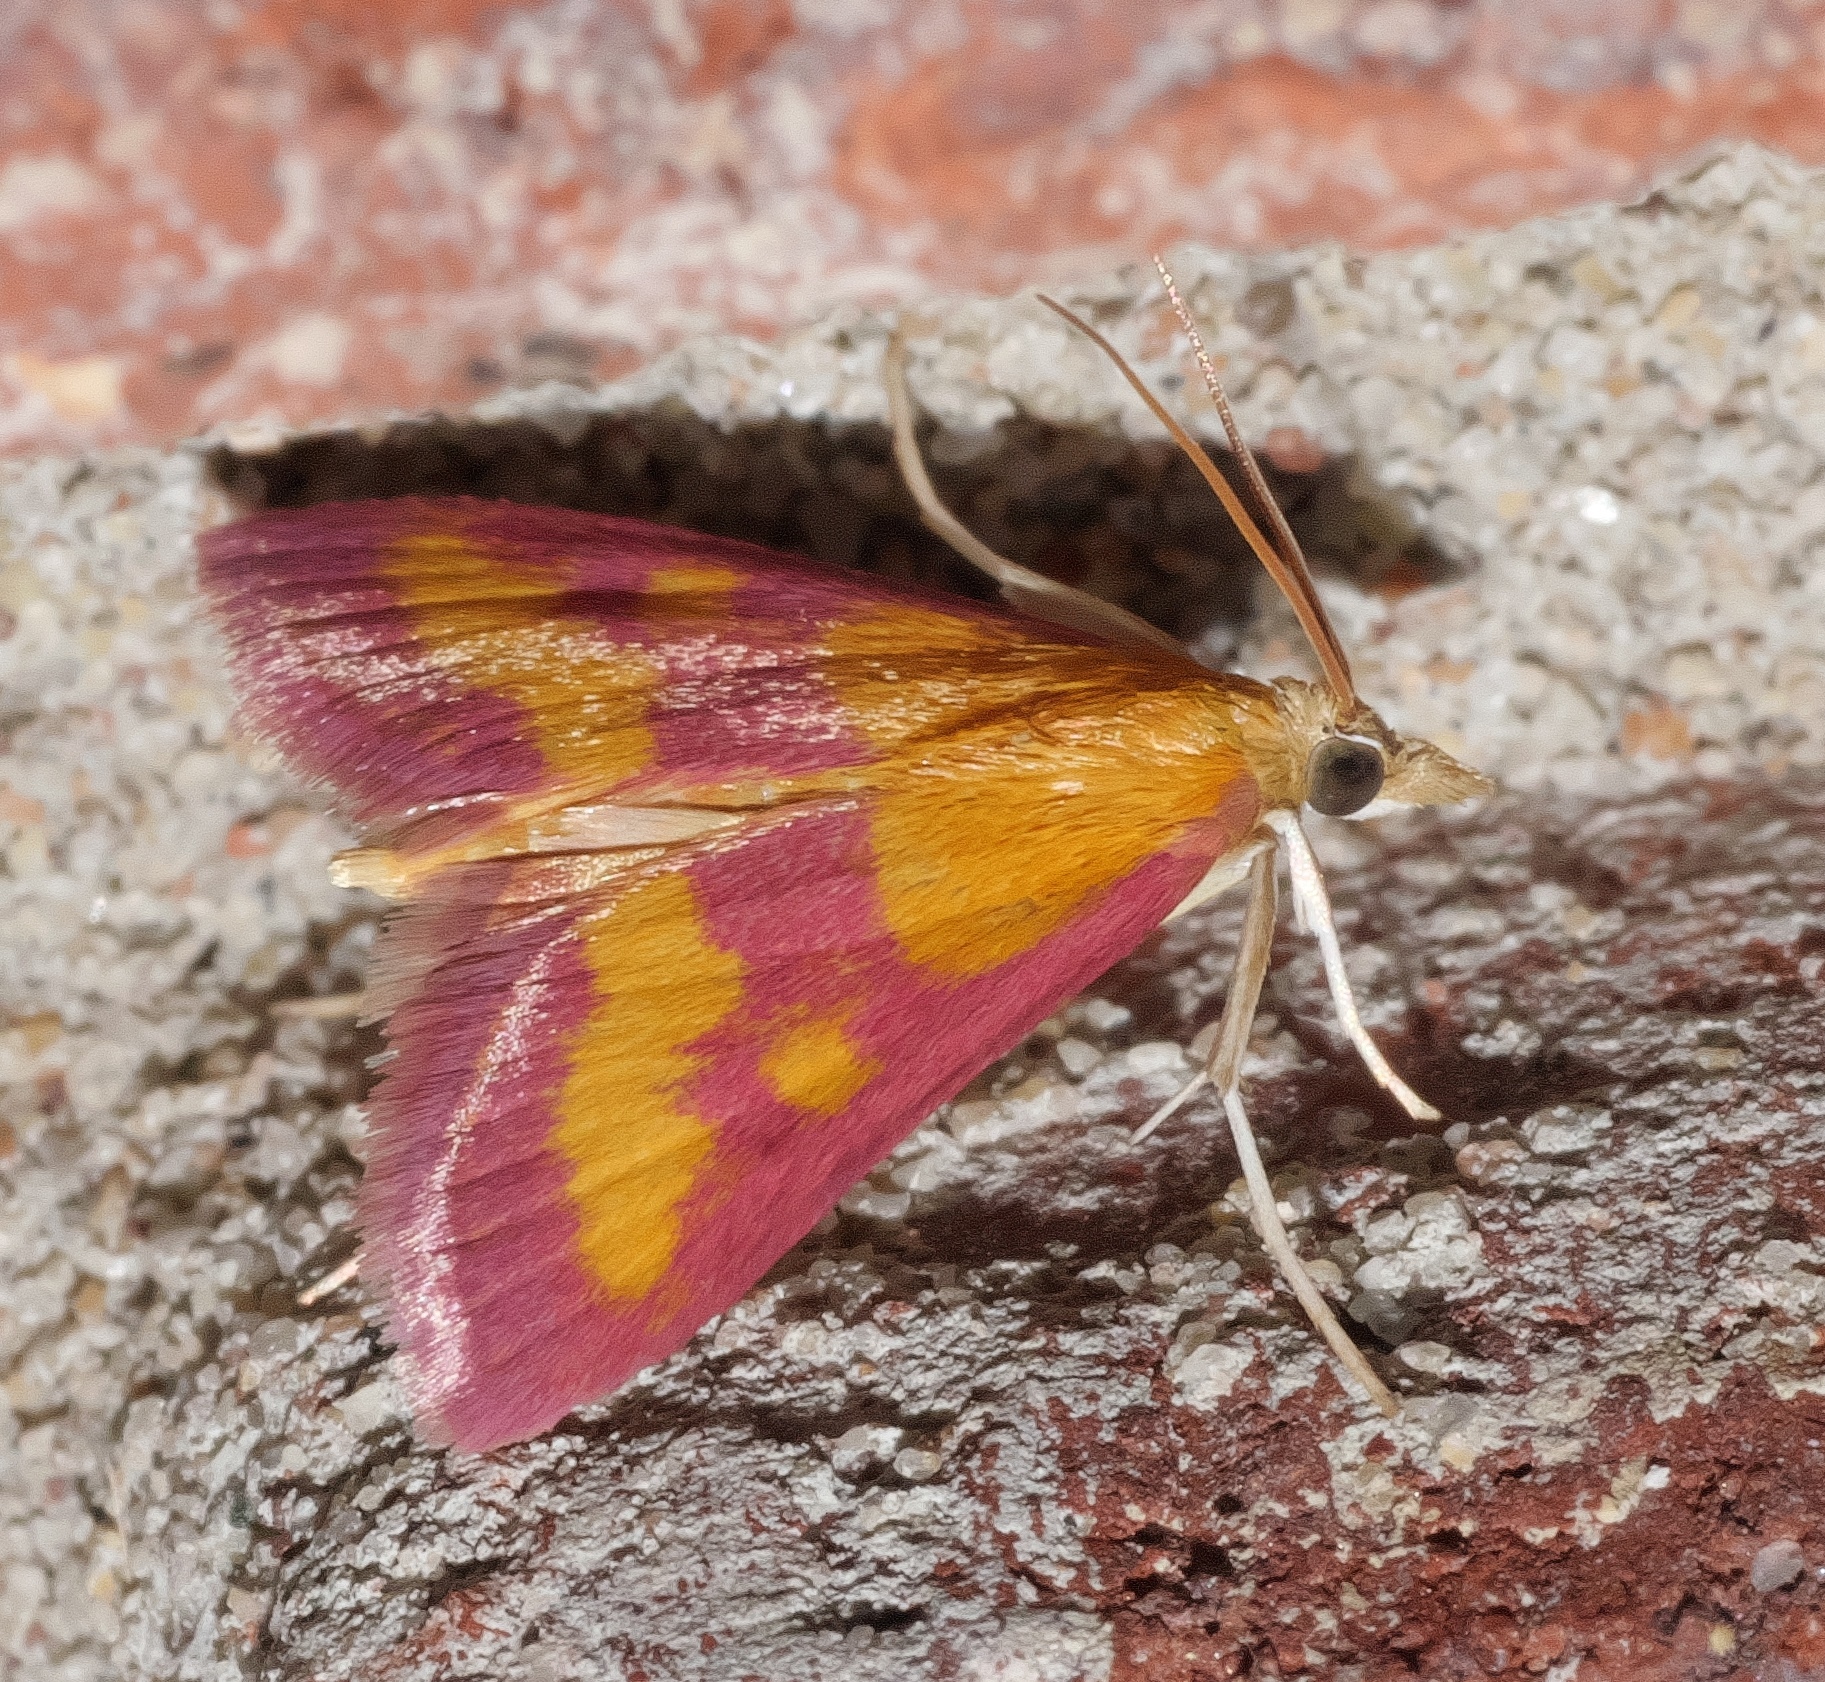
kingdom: Animalia
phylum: Arthropoda
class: Insecta
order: Lepidoptera
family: Crambidae
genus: Pyrausta
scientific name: Pyrausta laticlavia
